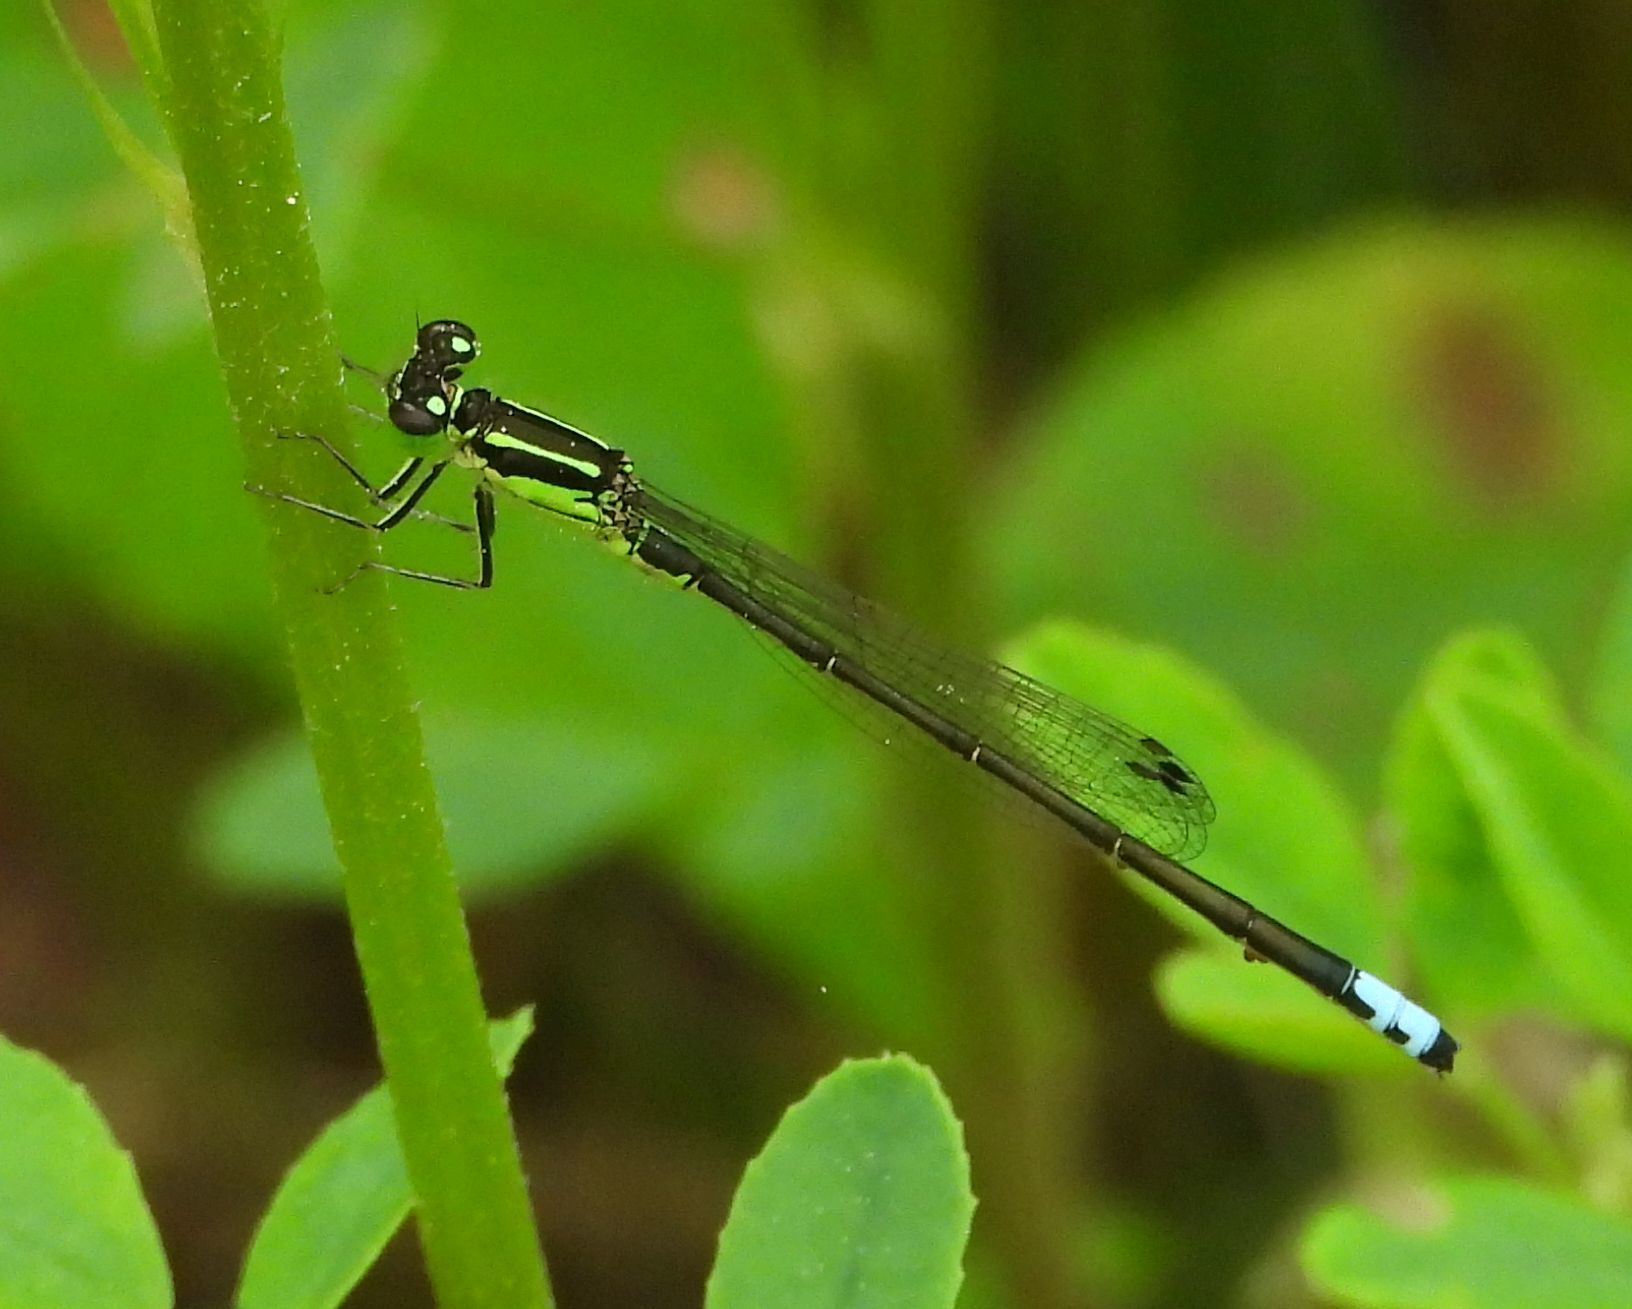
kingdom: Animalia
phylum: Arthropoda
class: Insecta
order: Odonata
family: Coenagrionidae
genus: Ischnura
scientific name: Ischnura verticalis
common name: Eastern forktail
